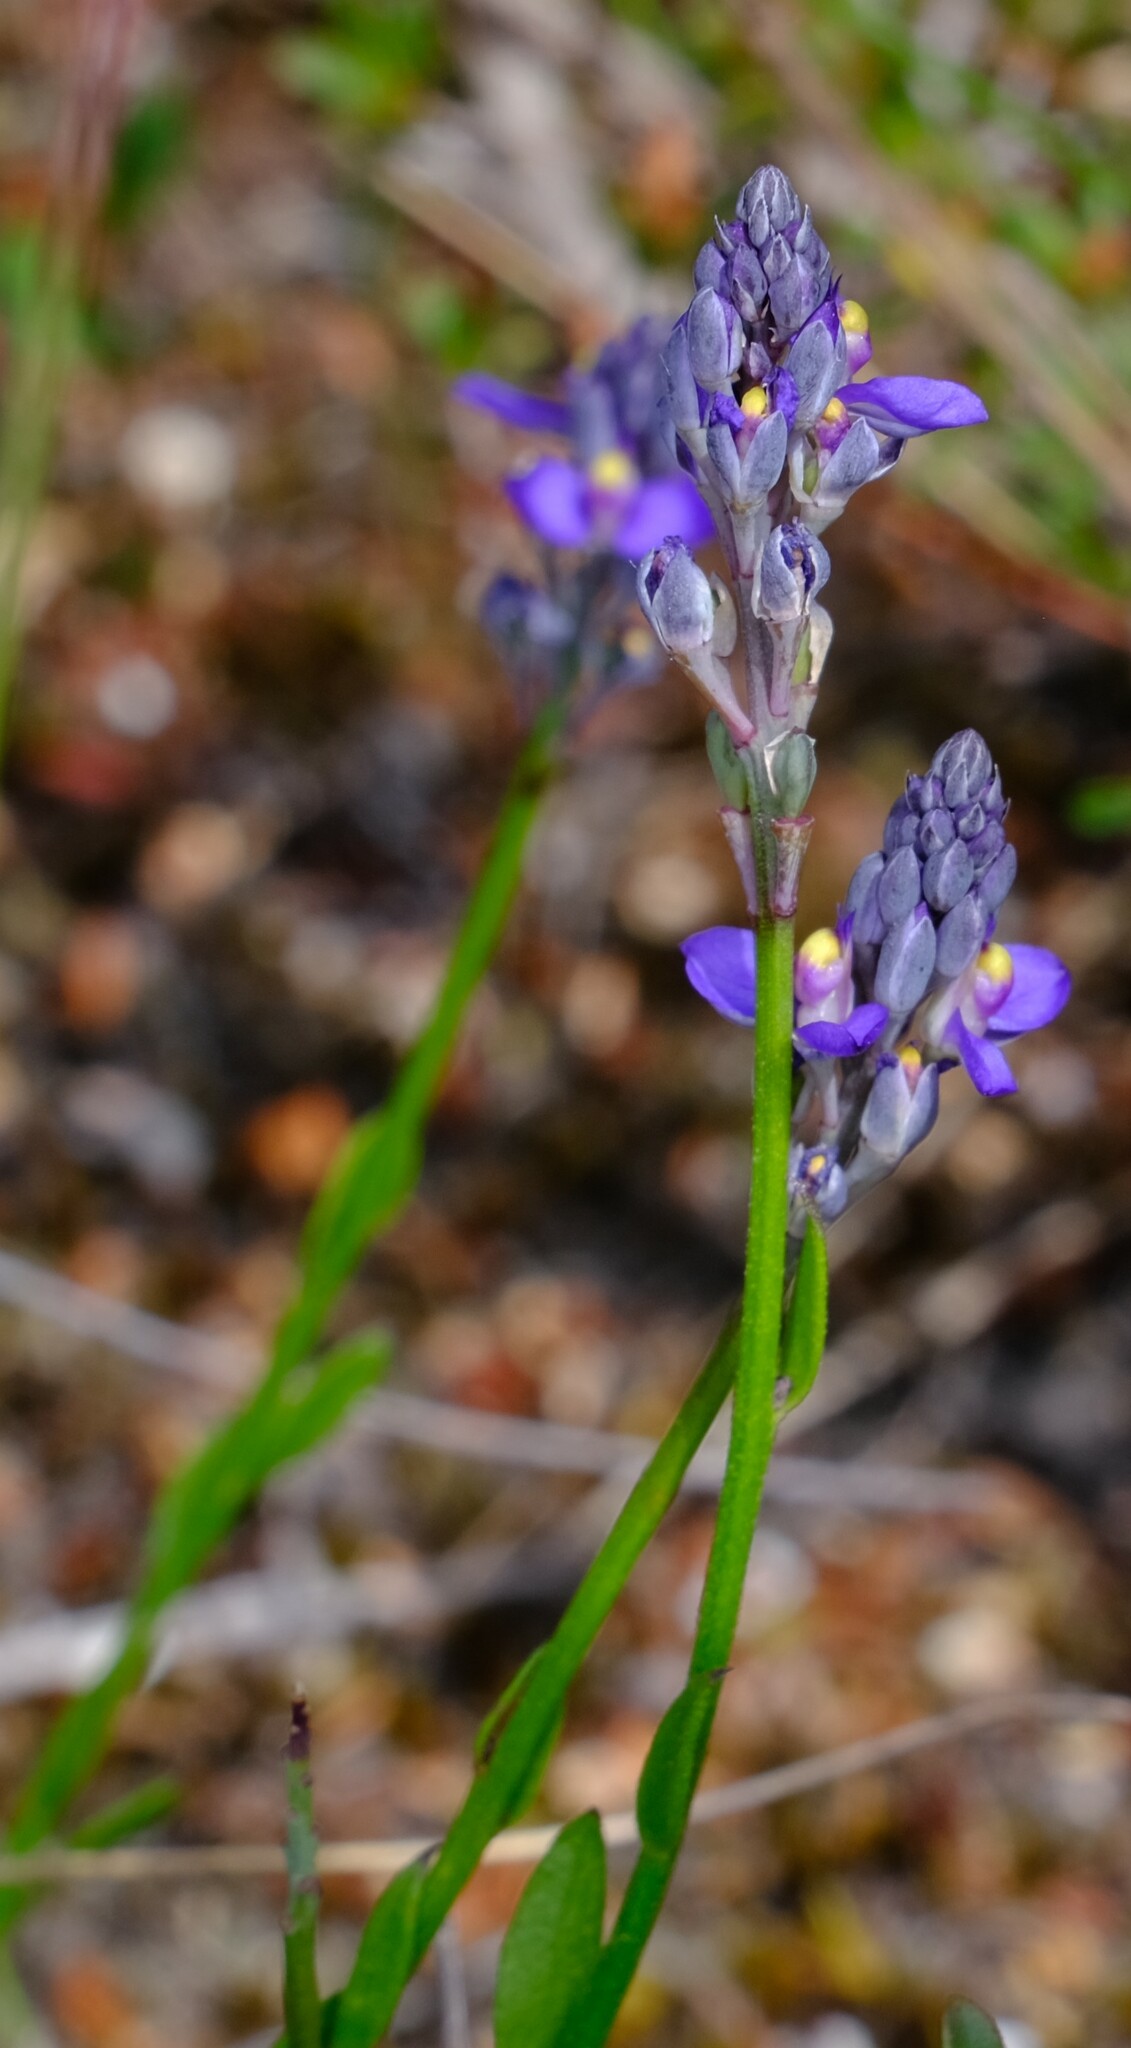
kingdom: Plantae
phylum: Tracheophyta
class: Magnoliopsida
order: Fabales
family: Polygalaceae
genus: Comesperma
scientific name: Comesperma calymega
